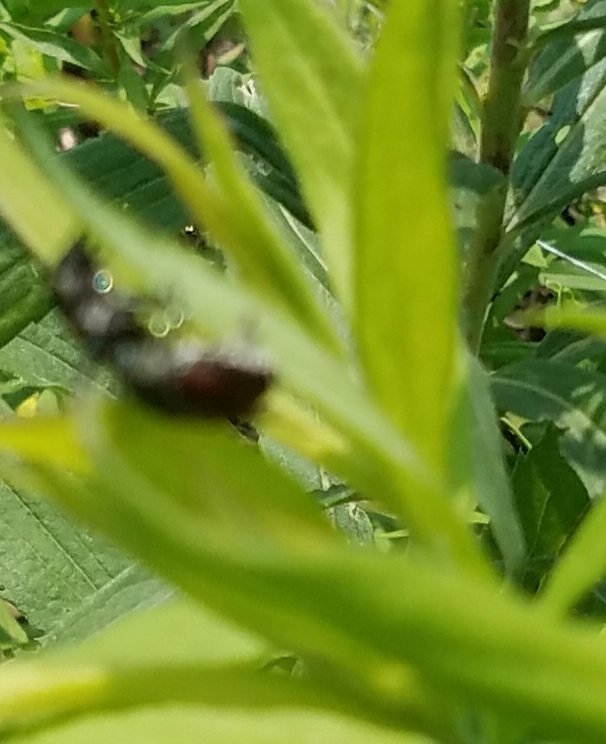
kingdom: Animalia
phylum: Arthropoda
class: Insecta
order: Coleoptera
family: Scarabaeidae
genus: Popillia
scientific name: Popillia japonica
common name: Japanese beetle
